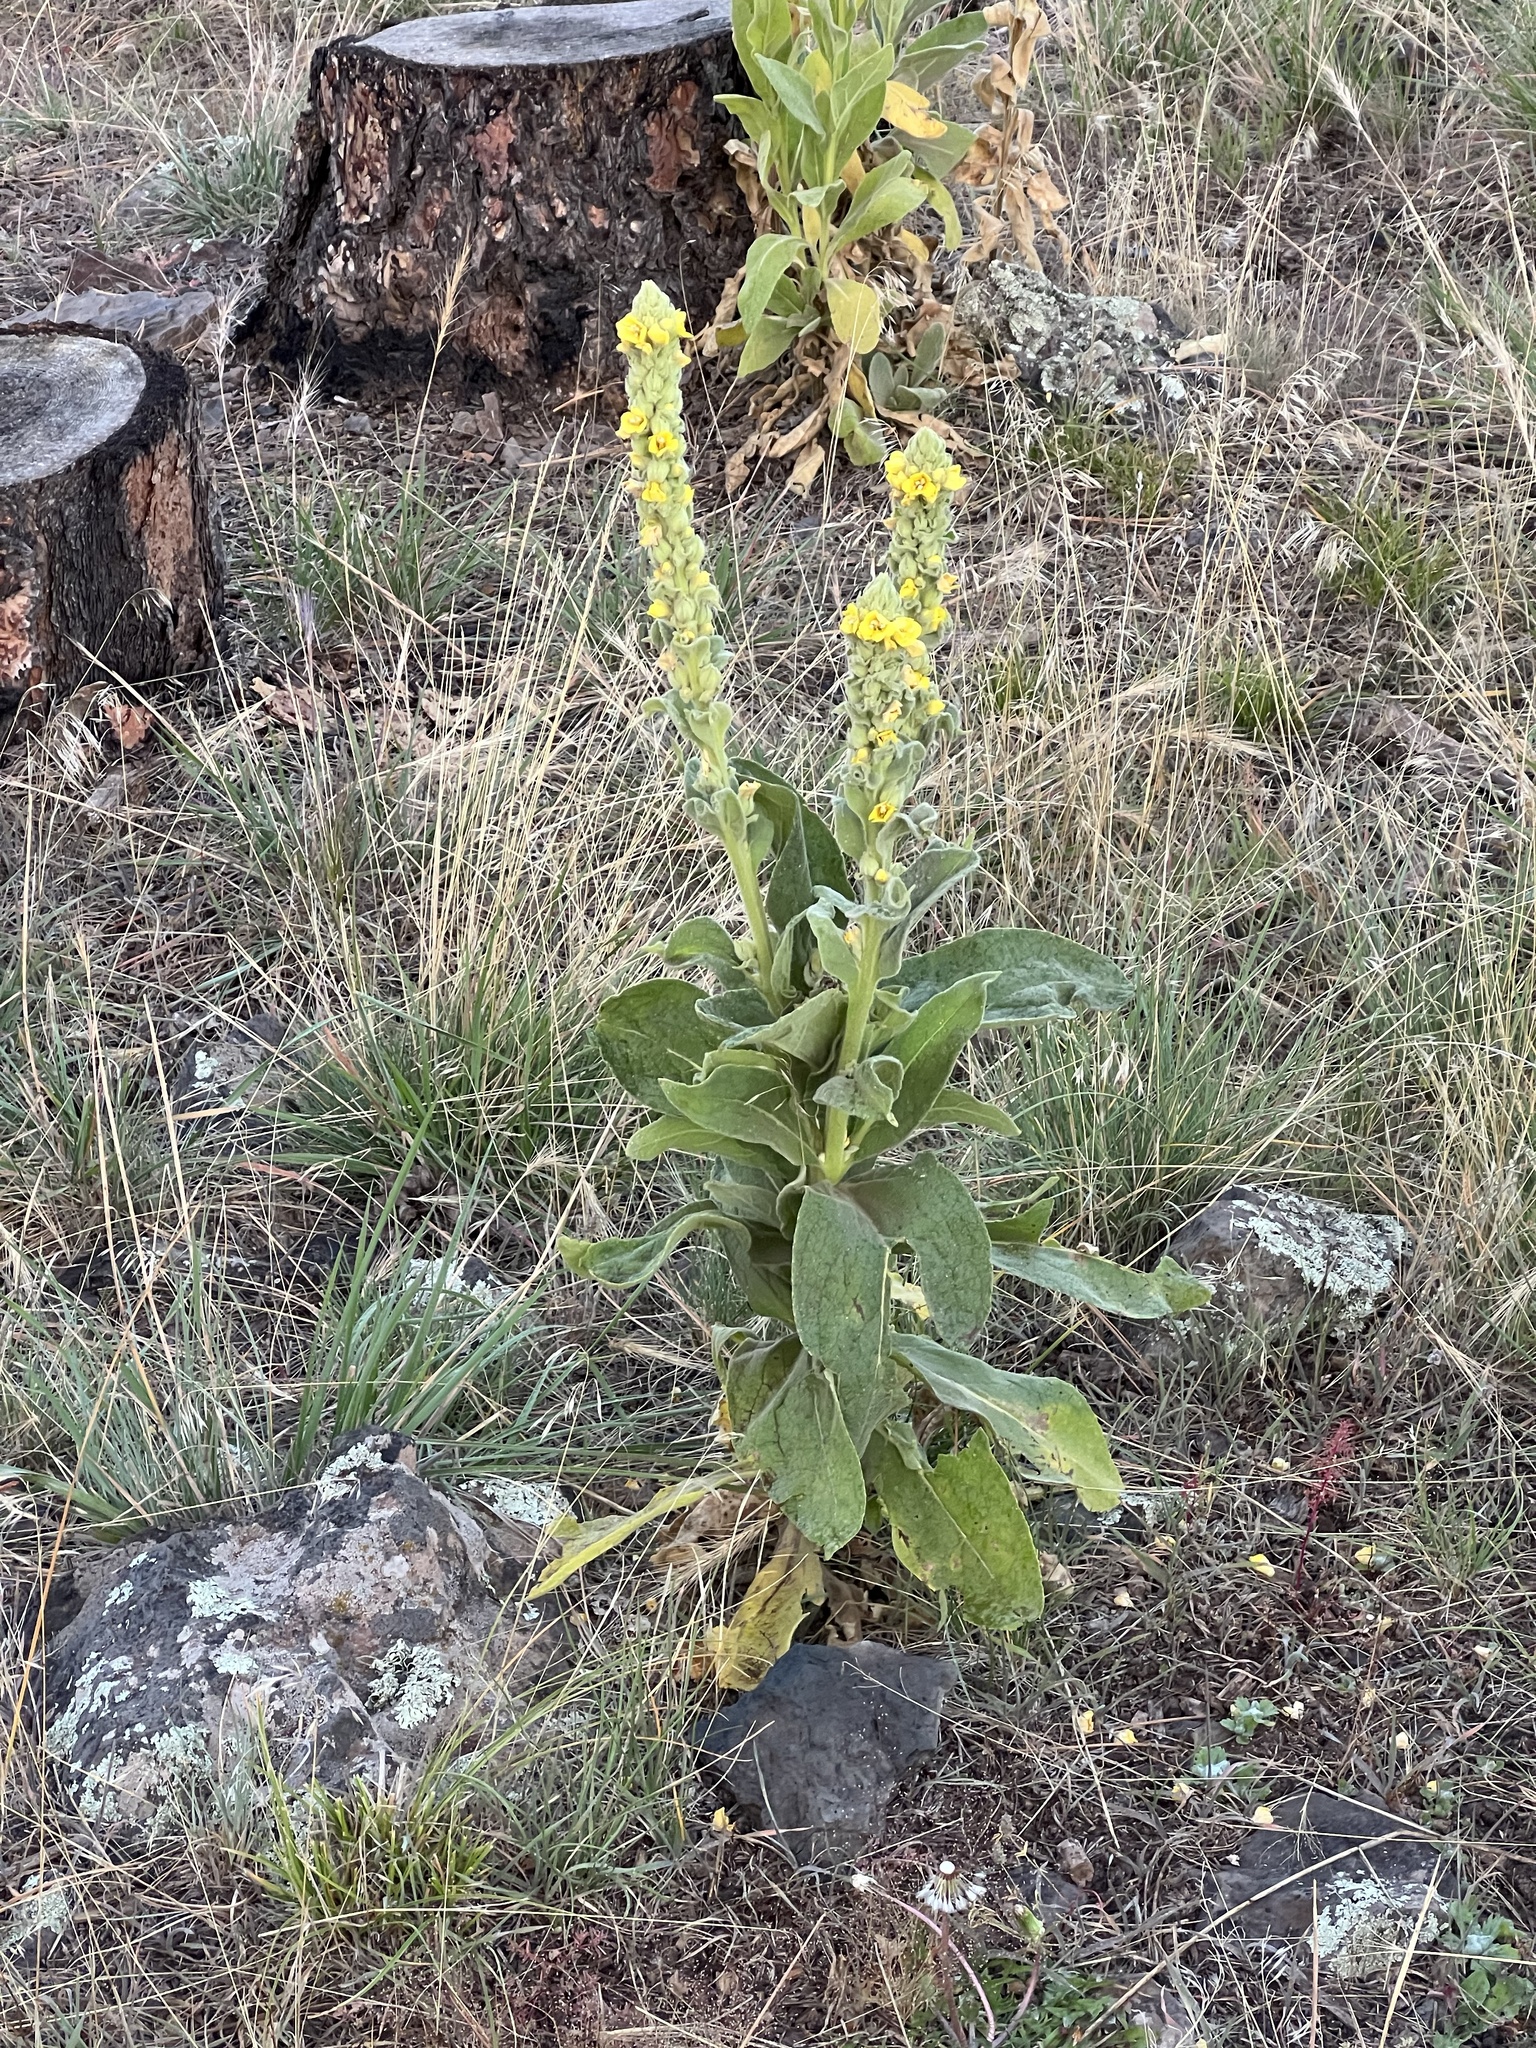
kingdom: Plantae
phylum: Tracheophyta
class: Magnoliopsida
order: Lamiales
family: Scrophulariaceae
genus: Verbascum
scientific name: Verbascum thapsus
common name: Common mullein
